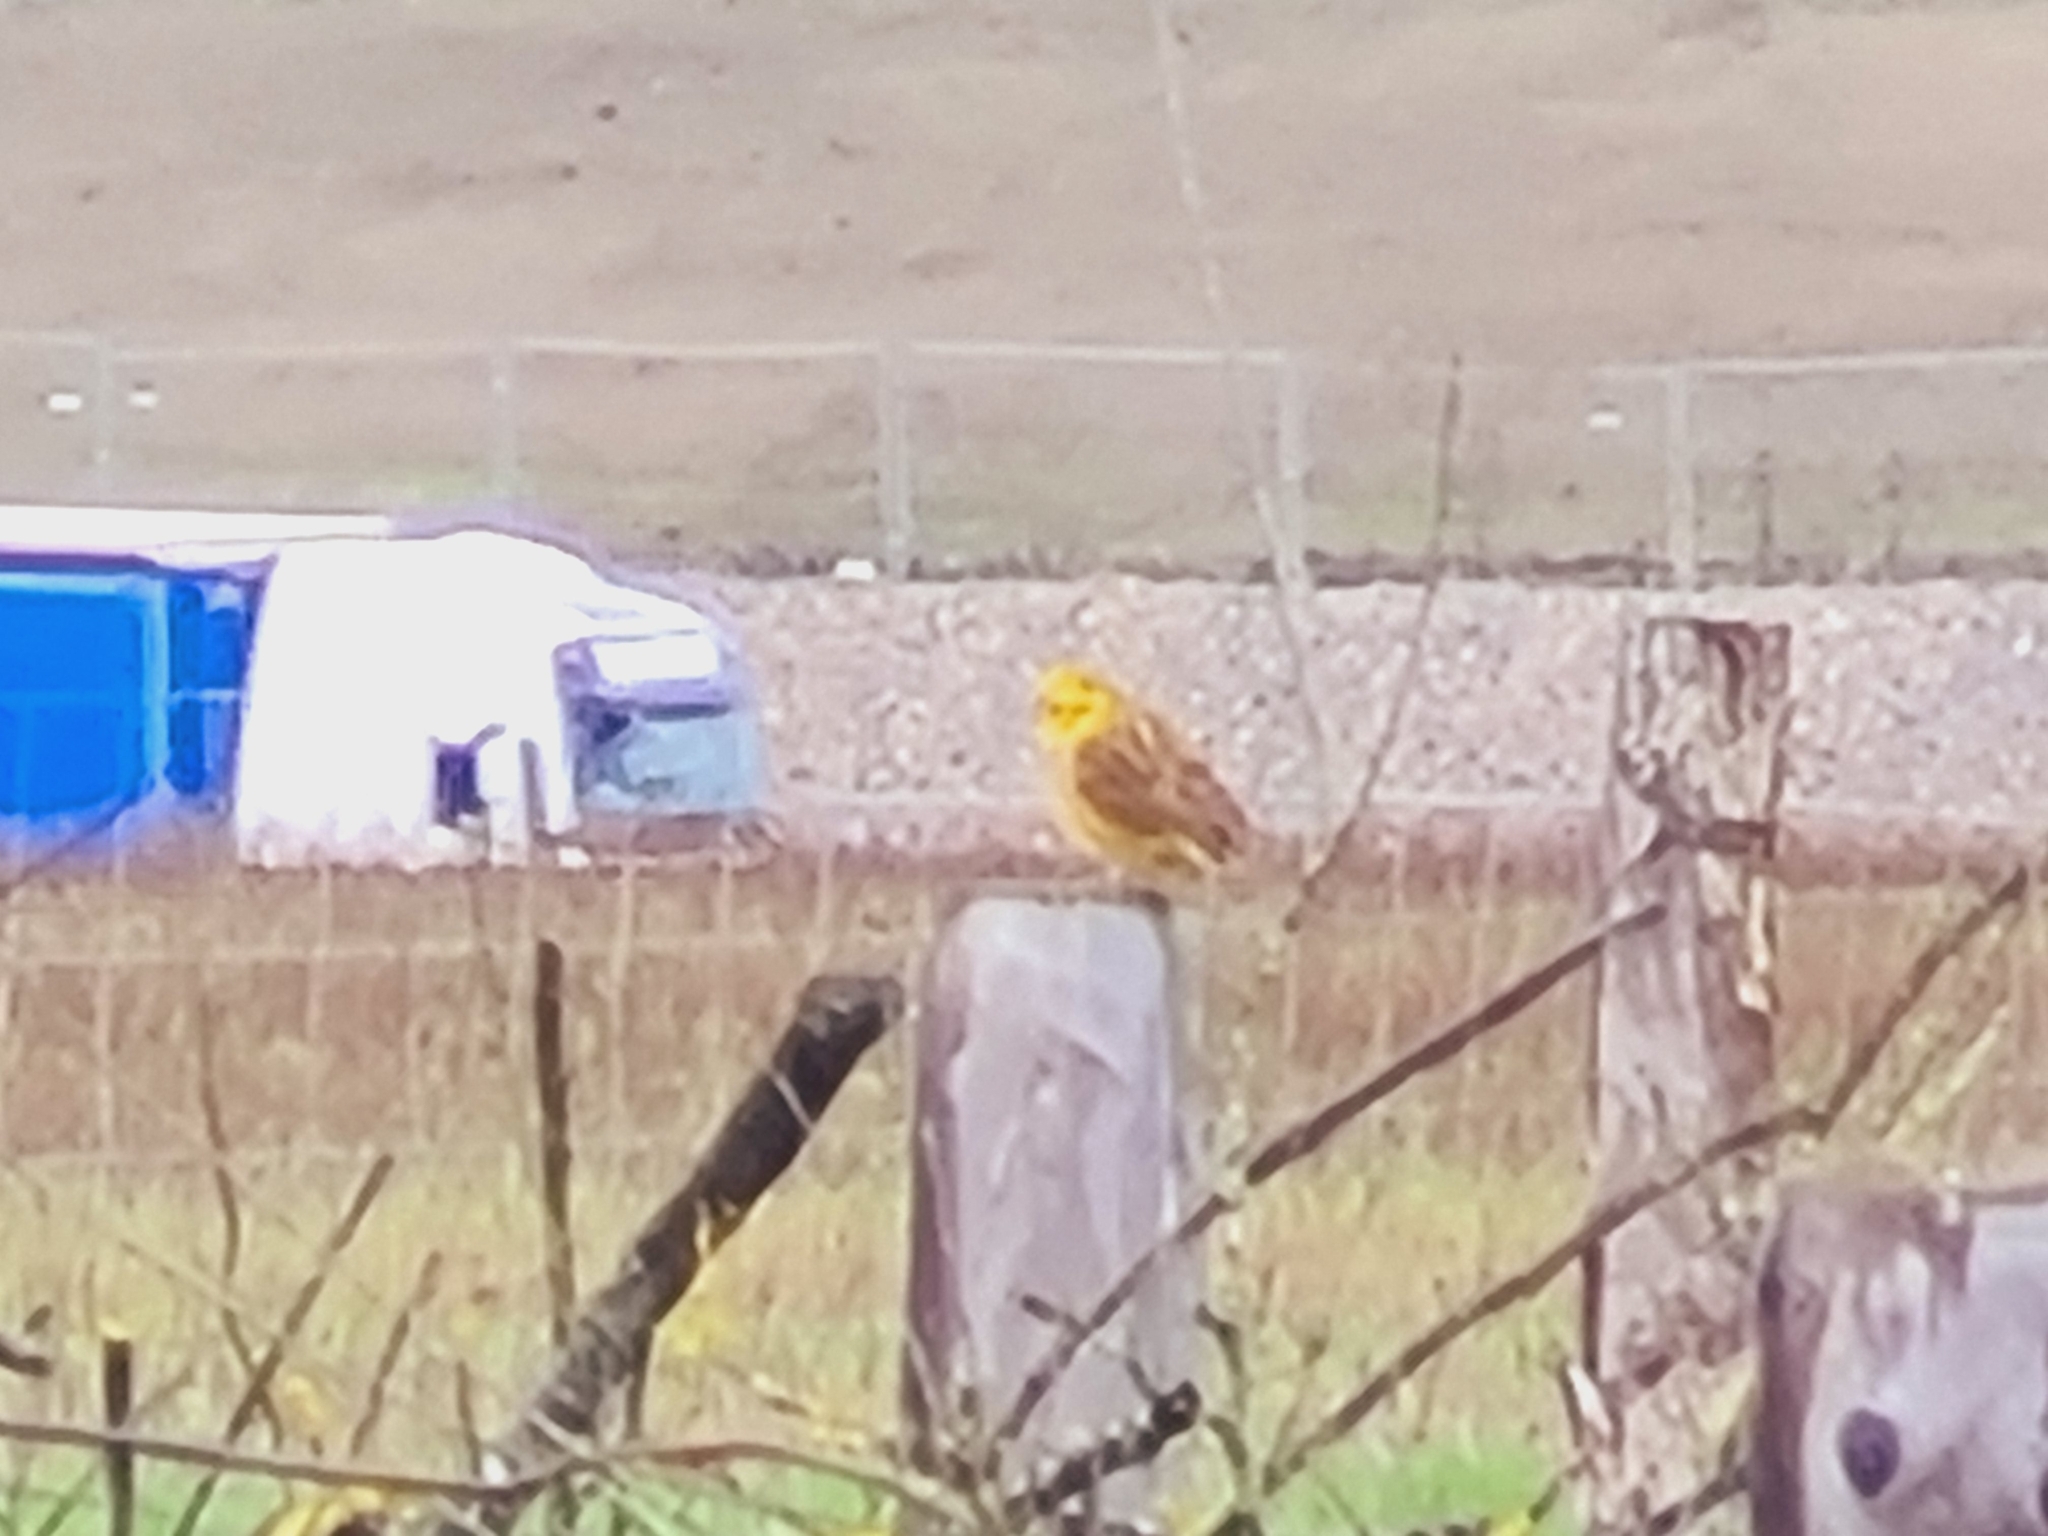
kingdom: Animalia
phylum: Chordata
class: Aves
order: Passeriformes
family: Emberizidae
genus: Emberiza
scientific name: Emberiza citrinella
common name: Yellowhammer
